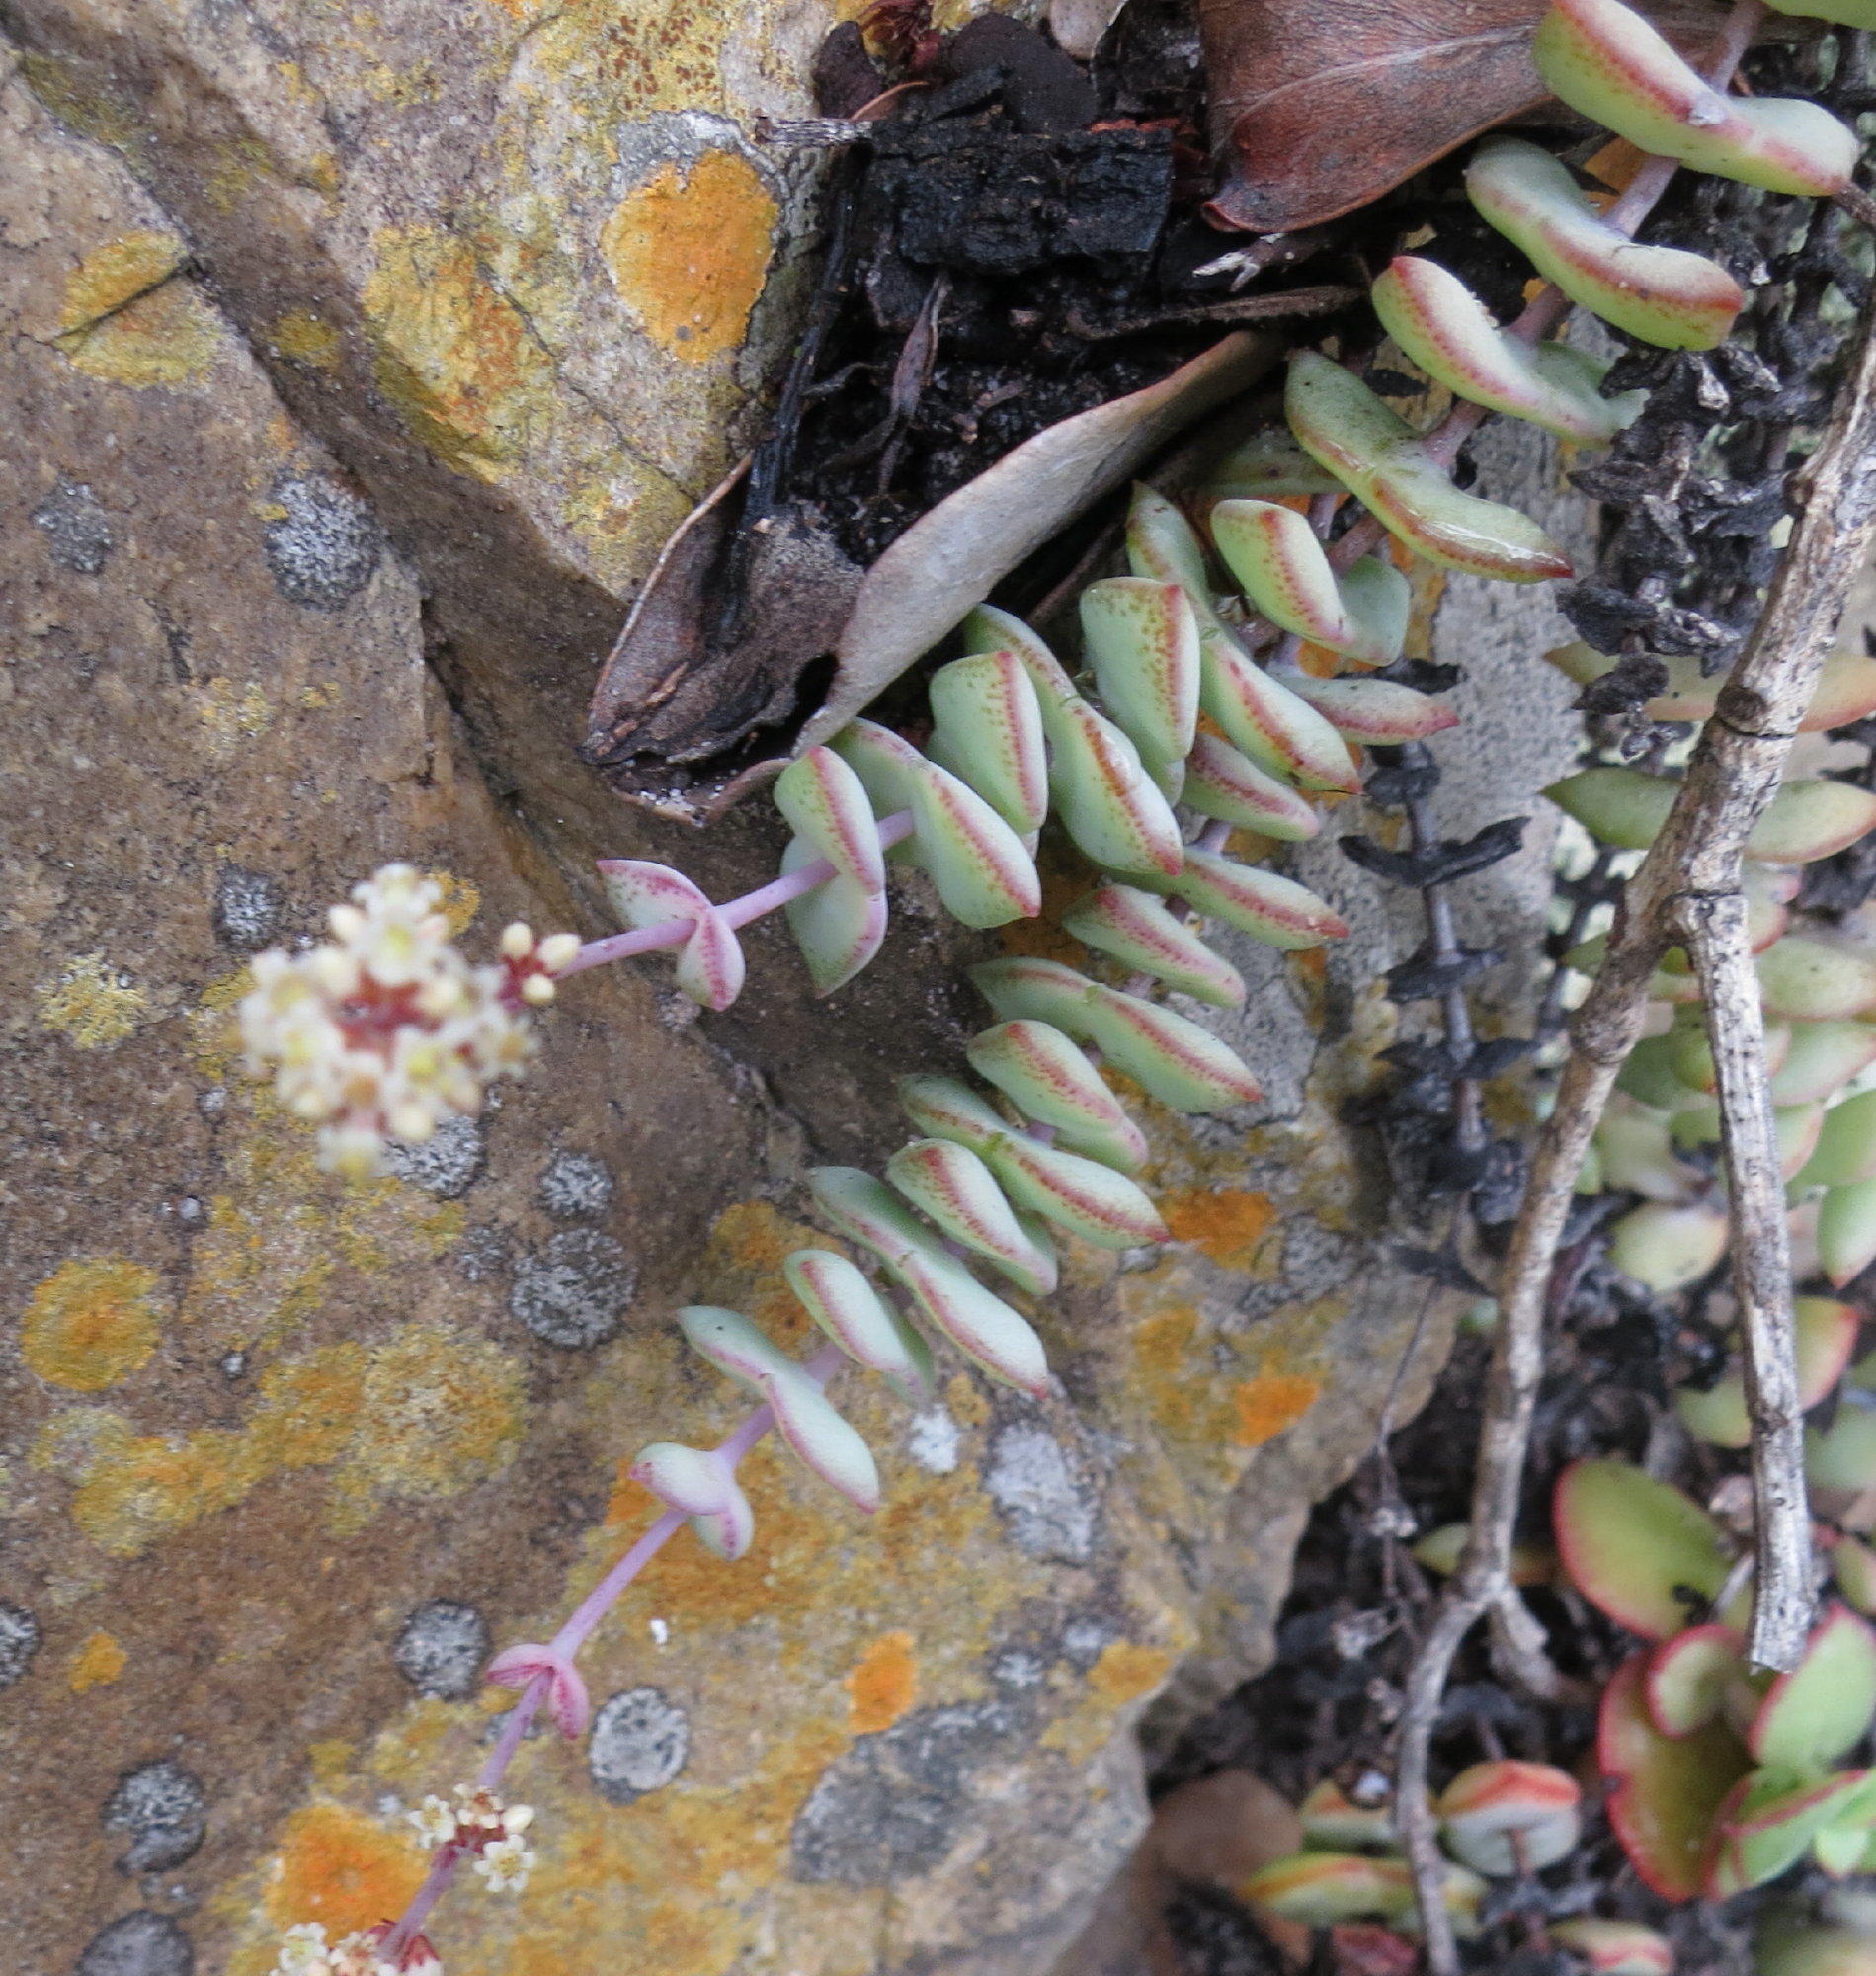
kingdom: Plantae
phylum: Tracheophyta
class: Magnoliopsida
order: Saxifragales
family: Crassulaceae
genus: Crassula
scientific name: Crassula perforata
